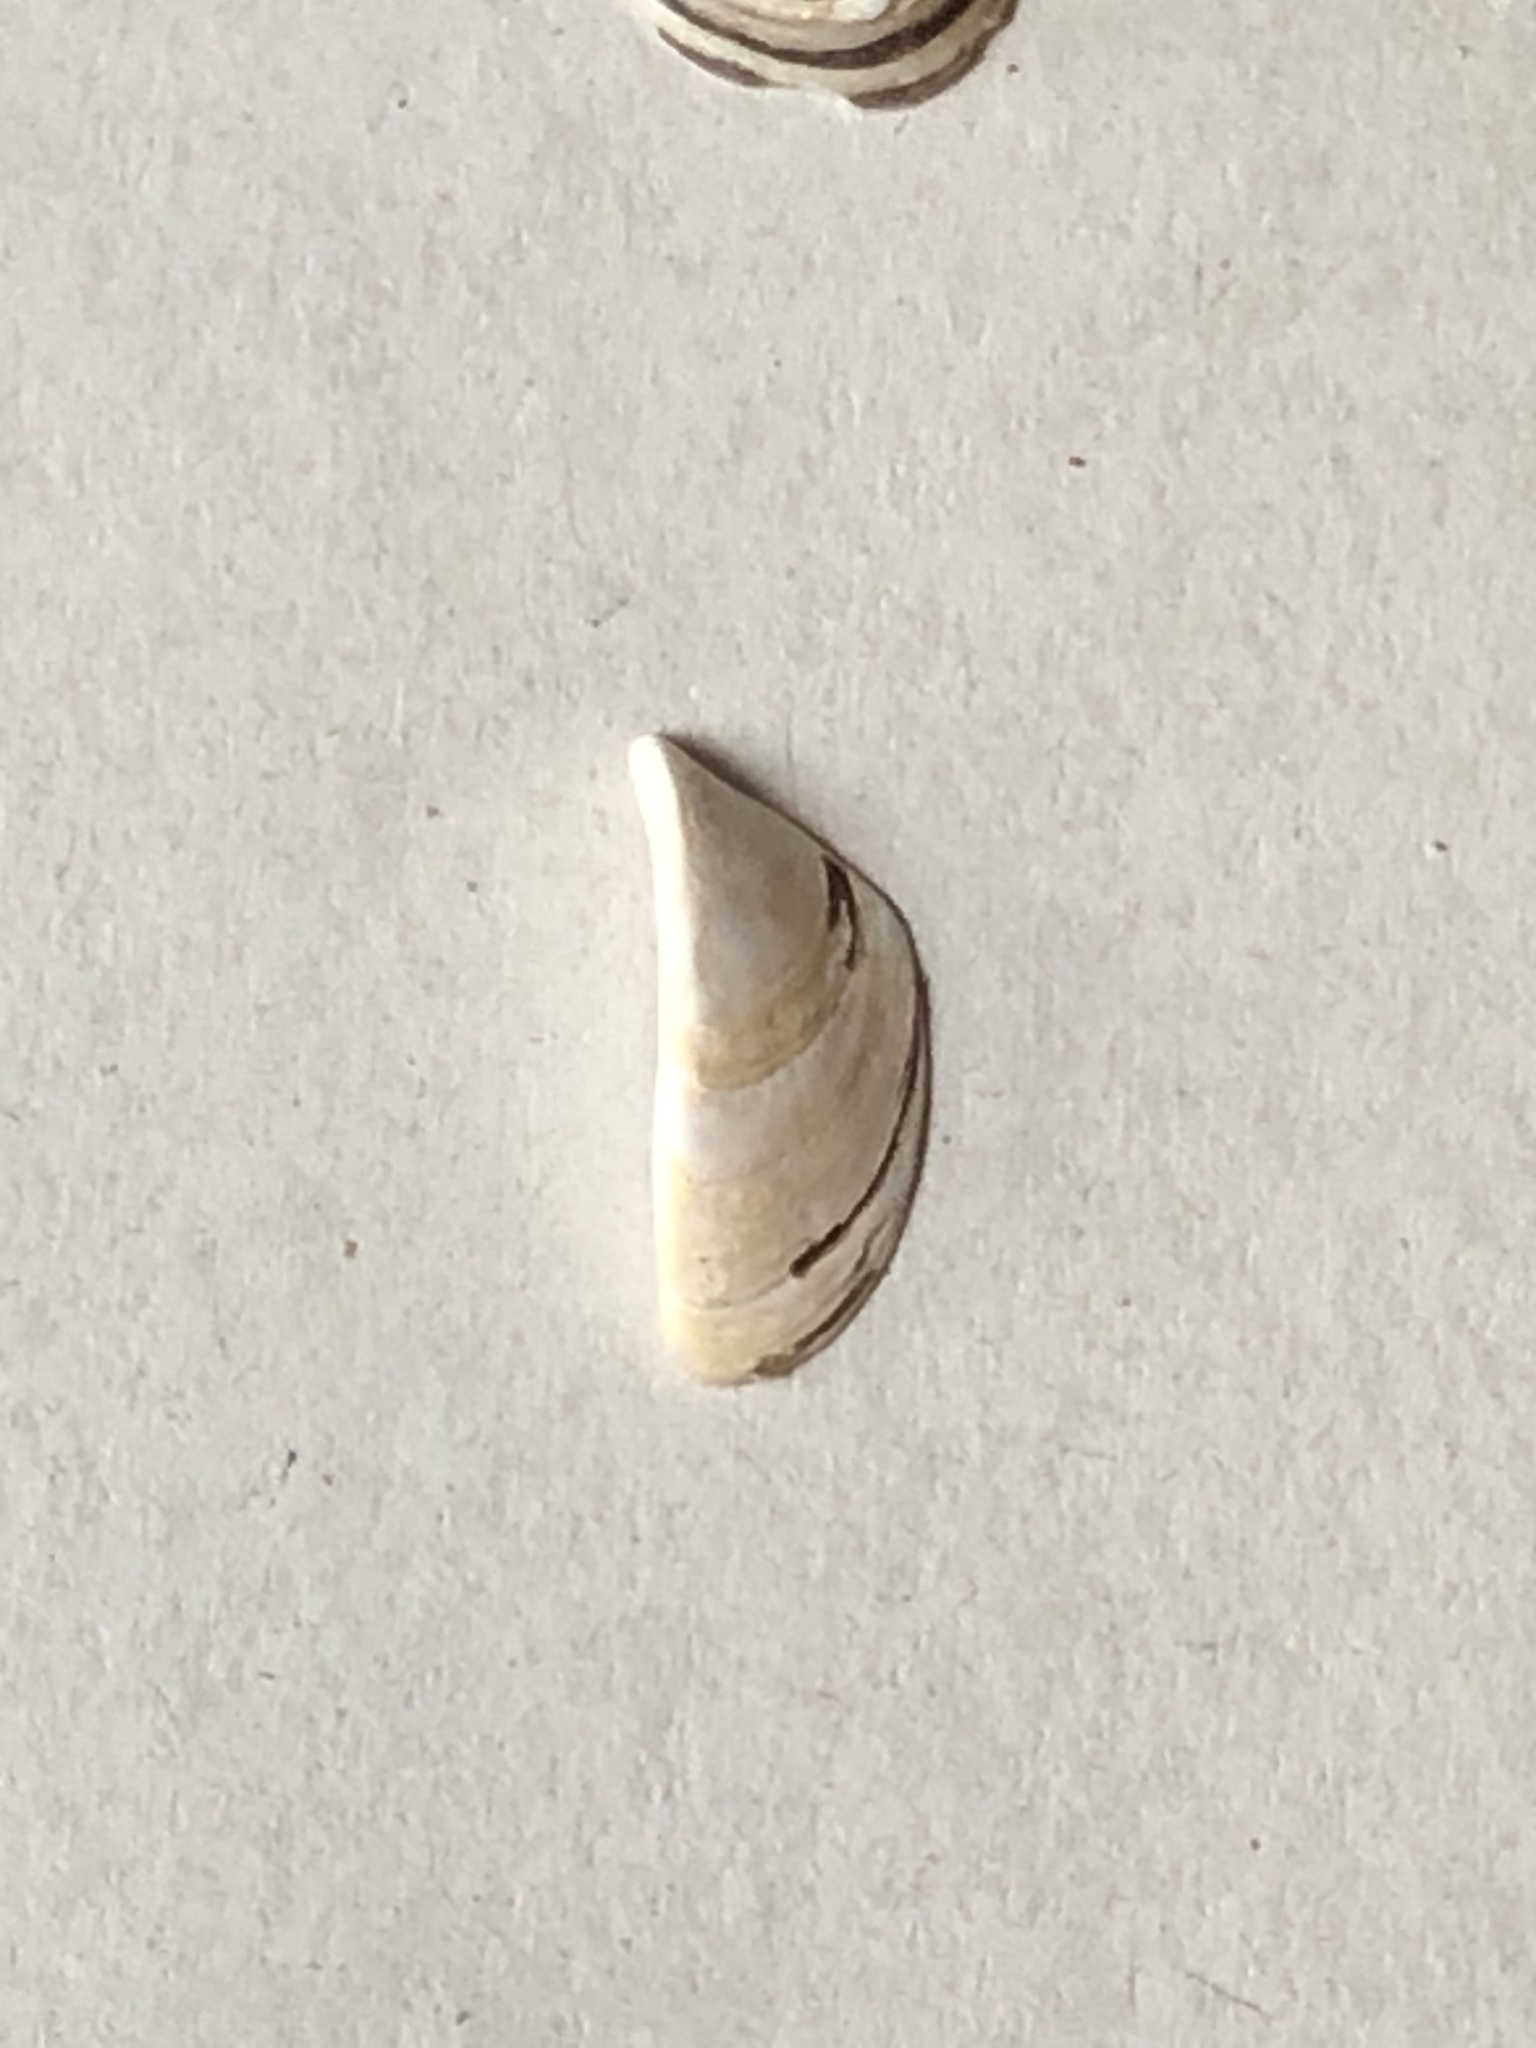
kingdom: Animalia
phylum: Mollusca
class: Bivalvia
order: Myida
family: Dreissenidae
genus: Dreissena
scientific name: Dreissena polymorpha
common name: Zebra mussel
